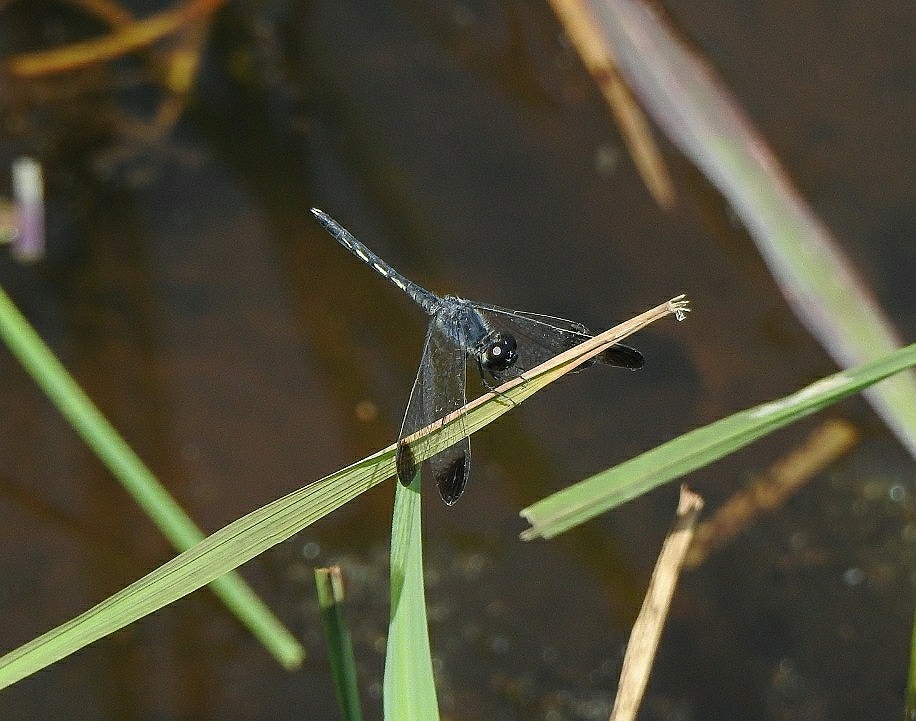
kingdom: Animalia
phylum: Arthropoda
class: Insecta
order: Odonata
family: Libellulidae
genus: Diplacodes
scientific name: Diplacodes nebulosa
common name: Black-tipped percher
